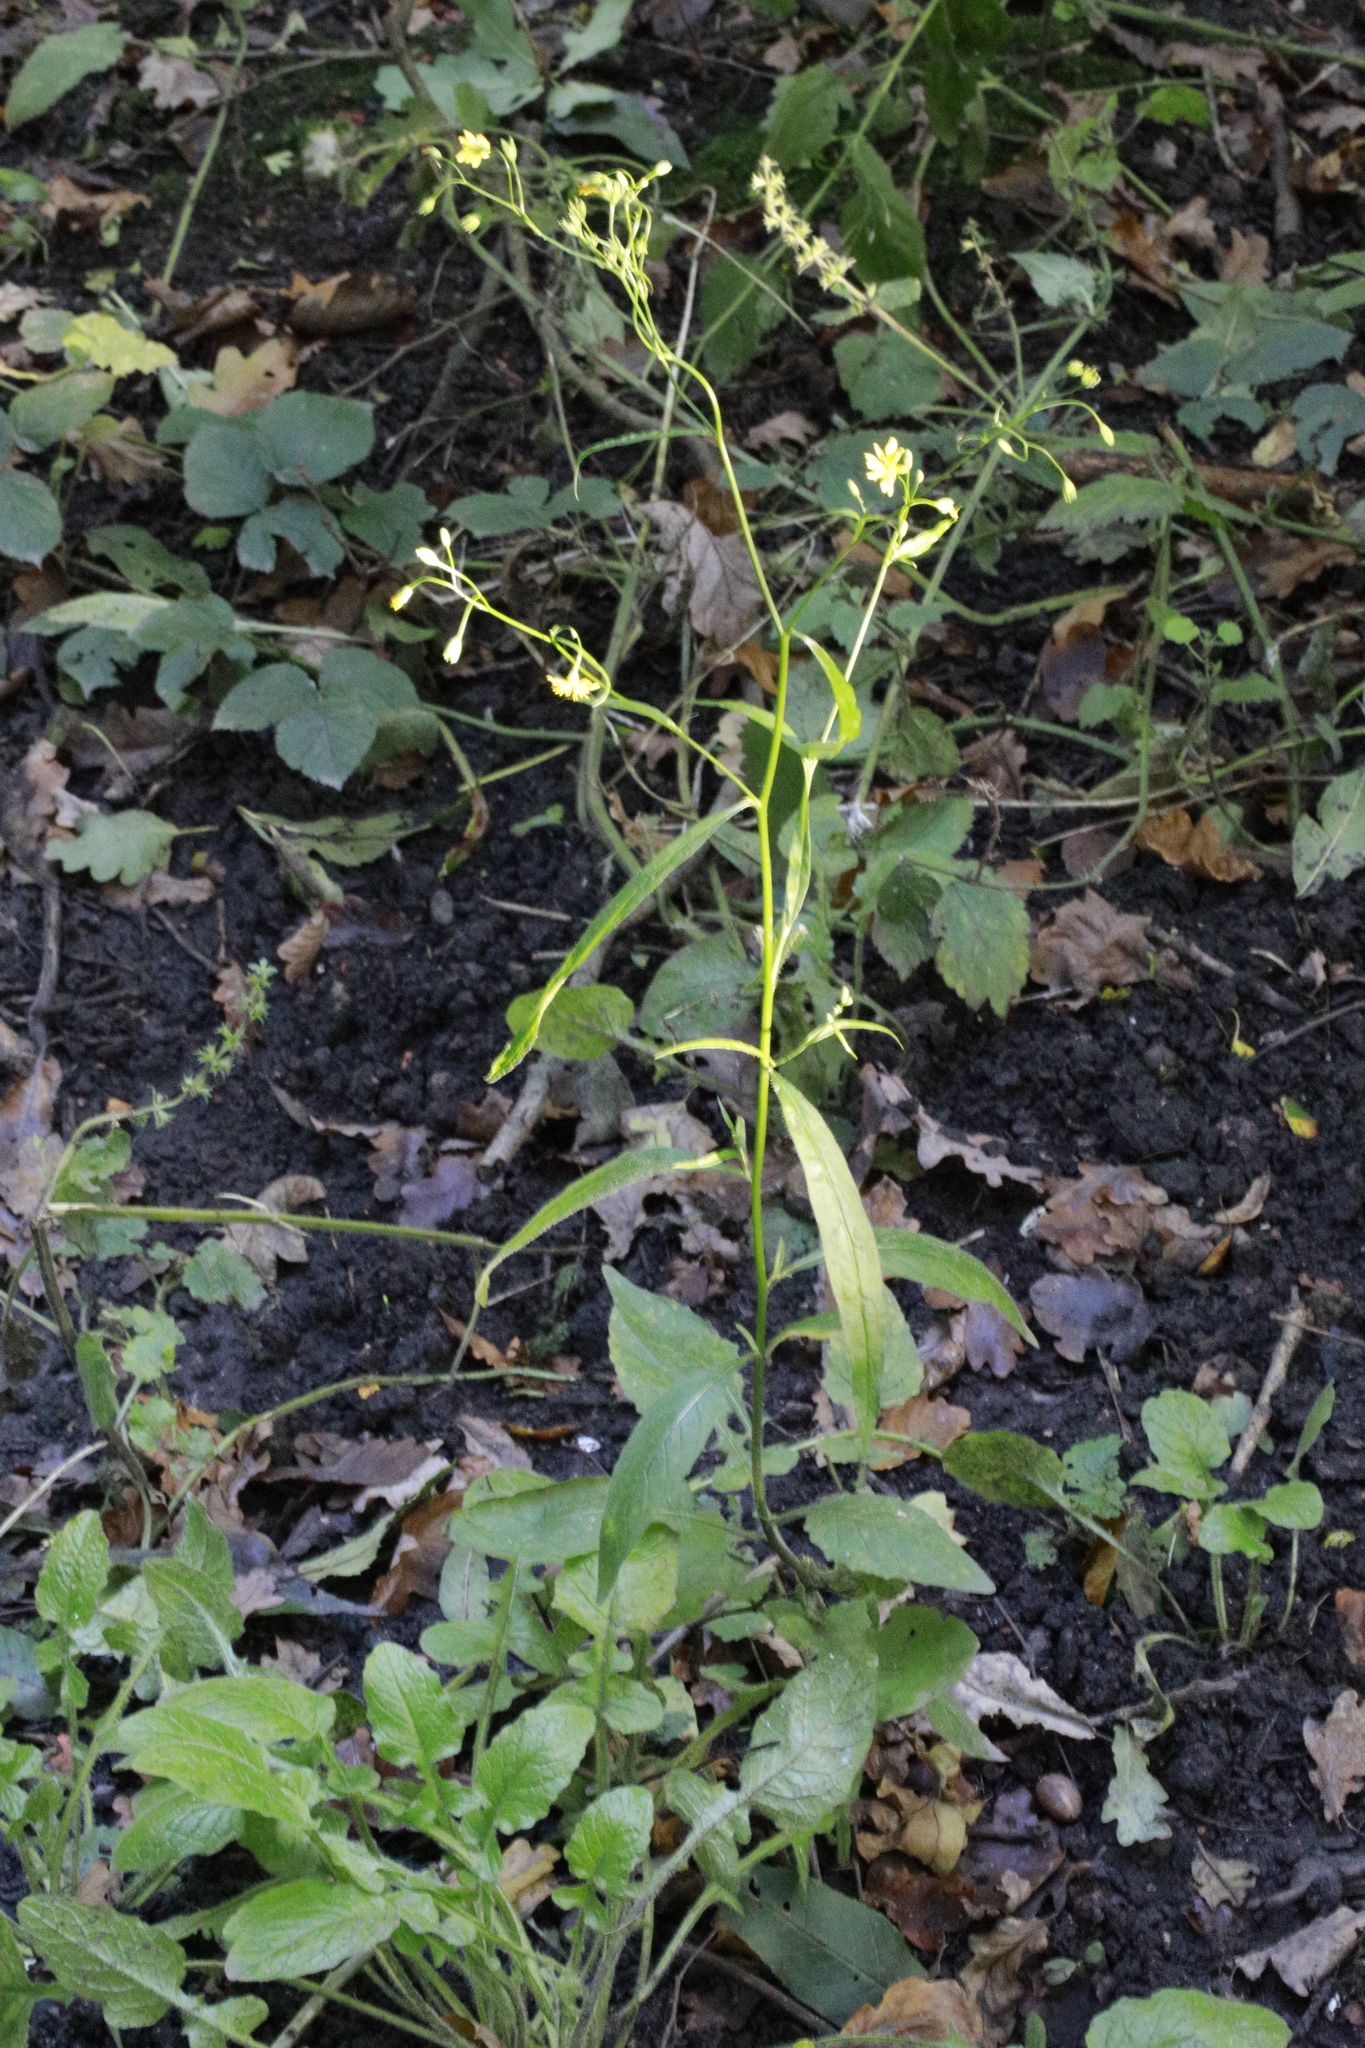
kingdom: Plantae
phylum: Tracheophyta
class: Magnoliopsida
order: Asterales
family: Asteraceae
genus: Lapsana
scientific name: Lapsana communis
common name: Nipplewort
